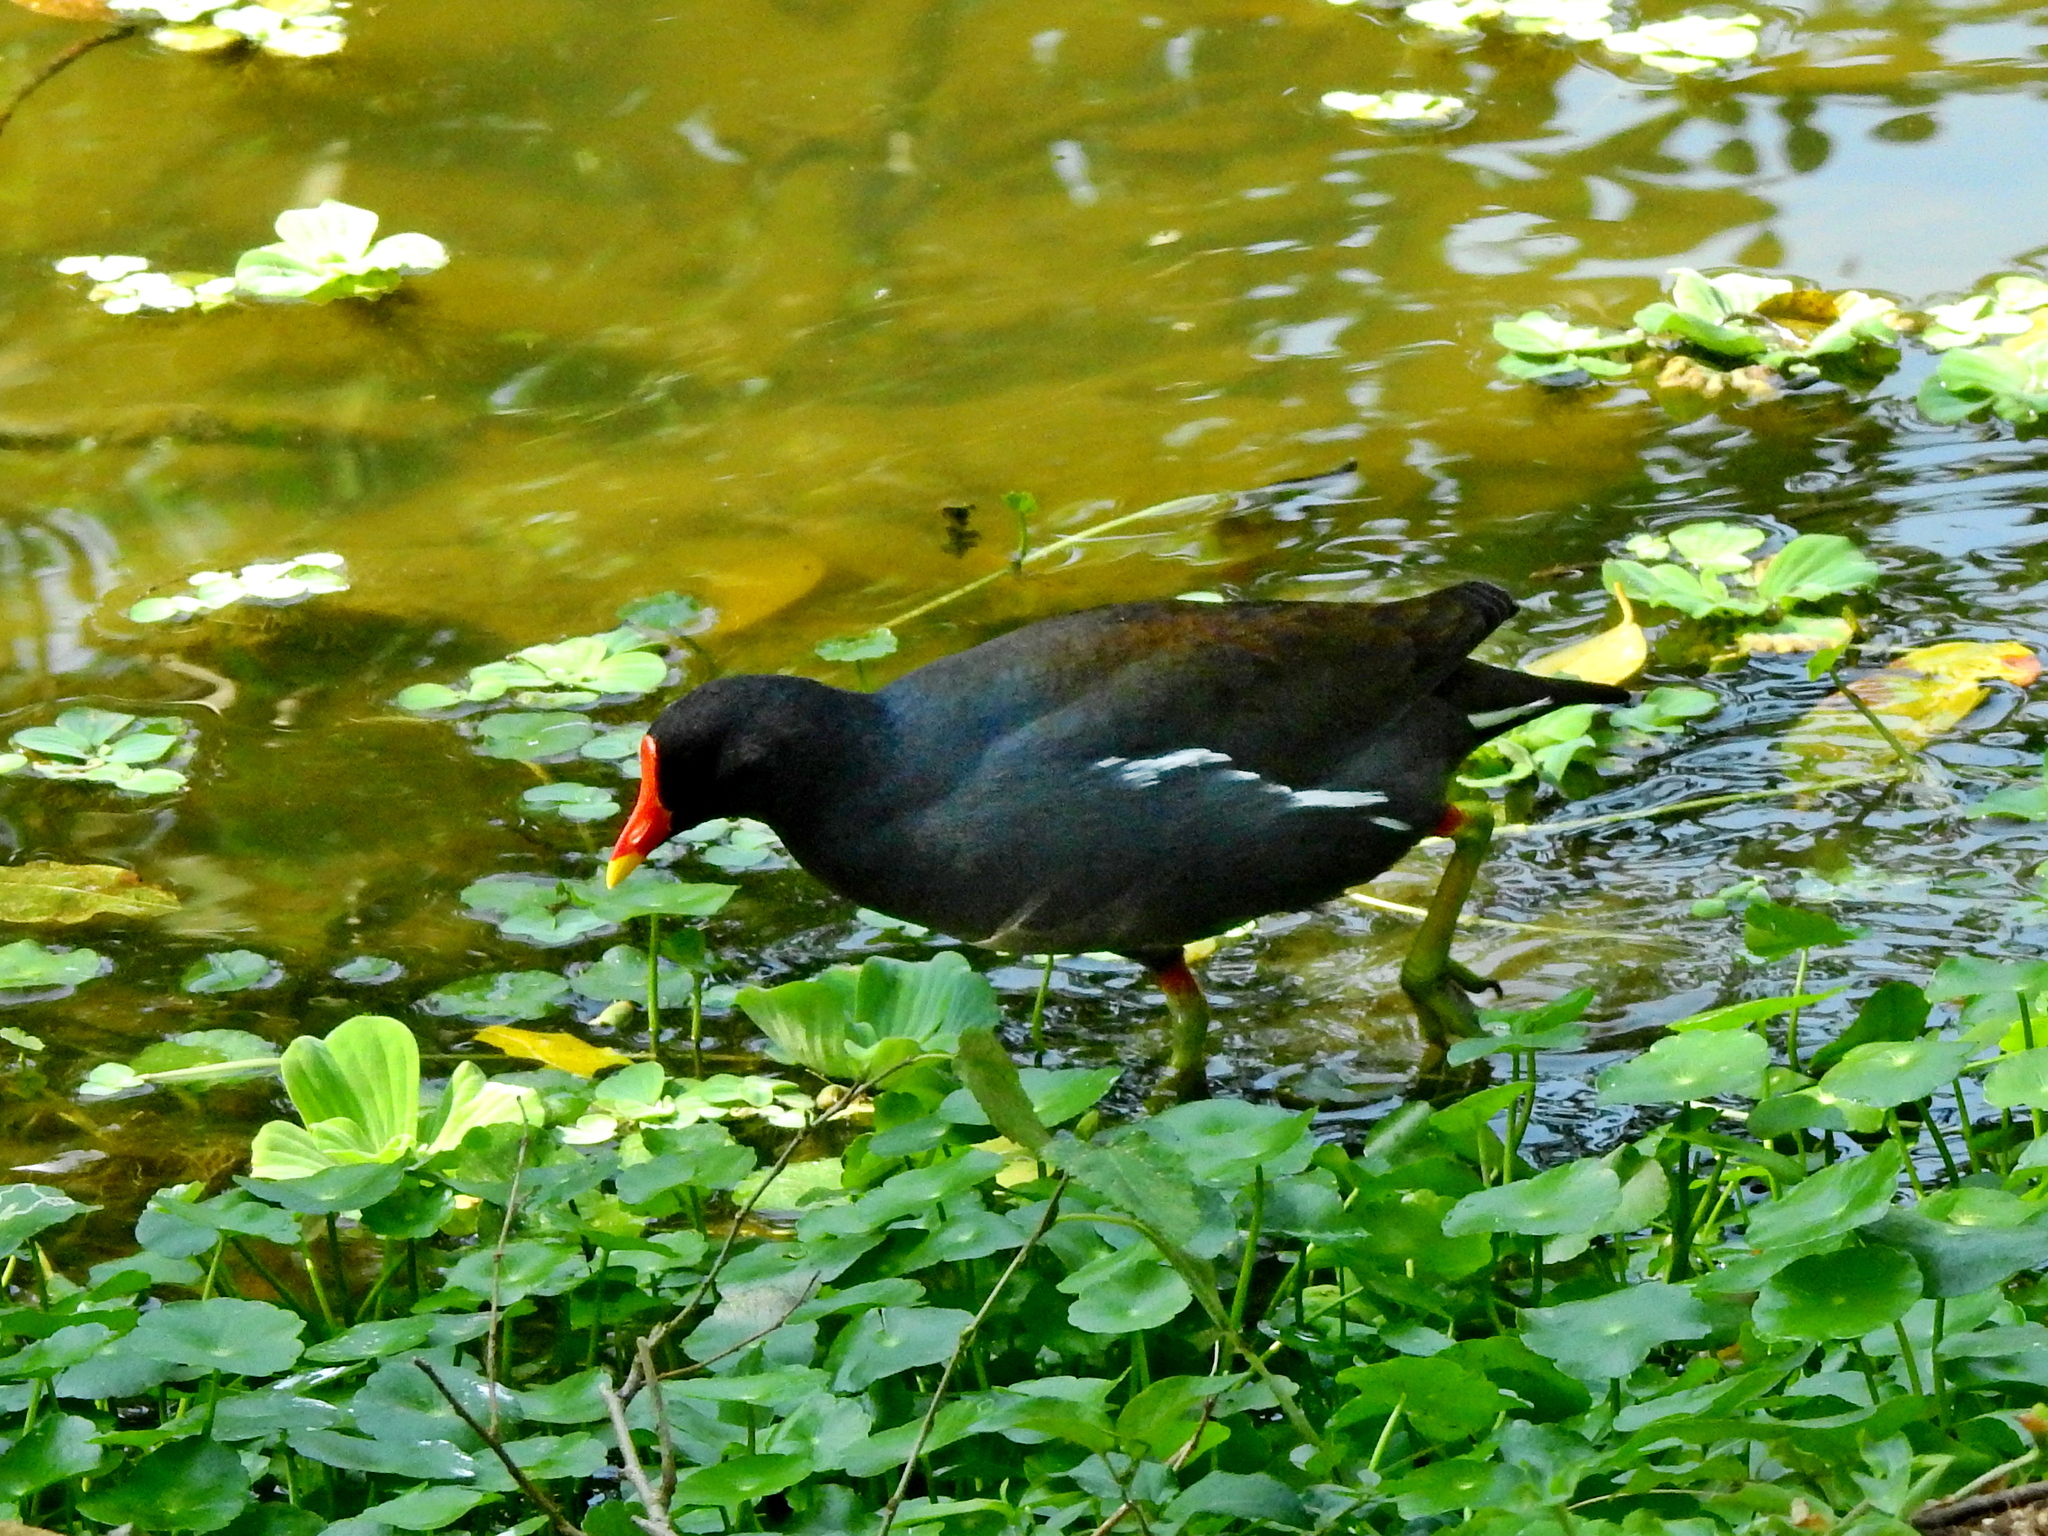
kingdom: Animalia
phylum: Chordata
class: Aves
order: Gruiformes
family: Rallidae
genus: Gallinula
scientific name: Gallinula chloropus
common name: Common moorhen
